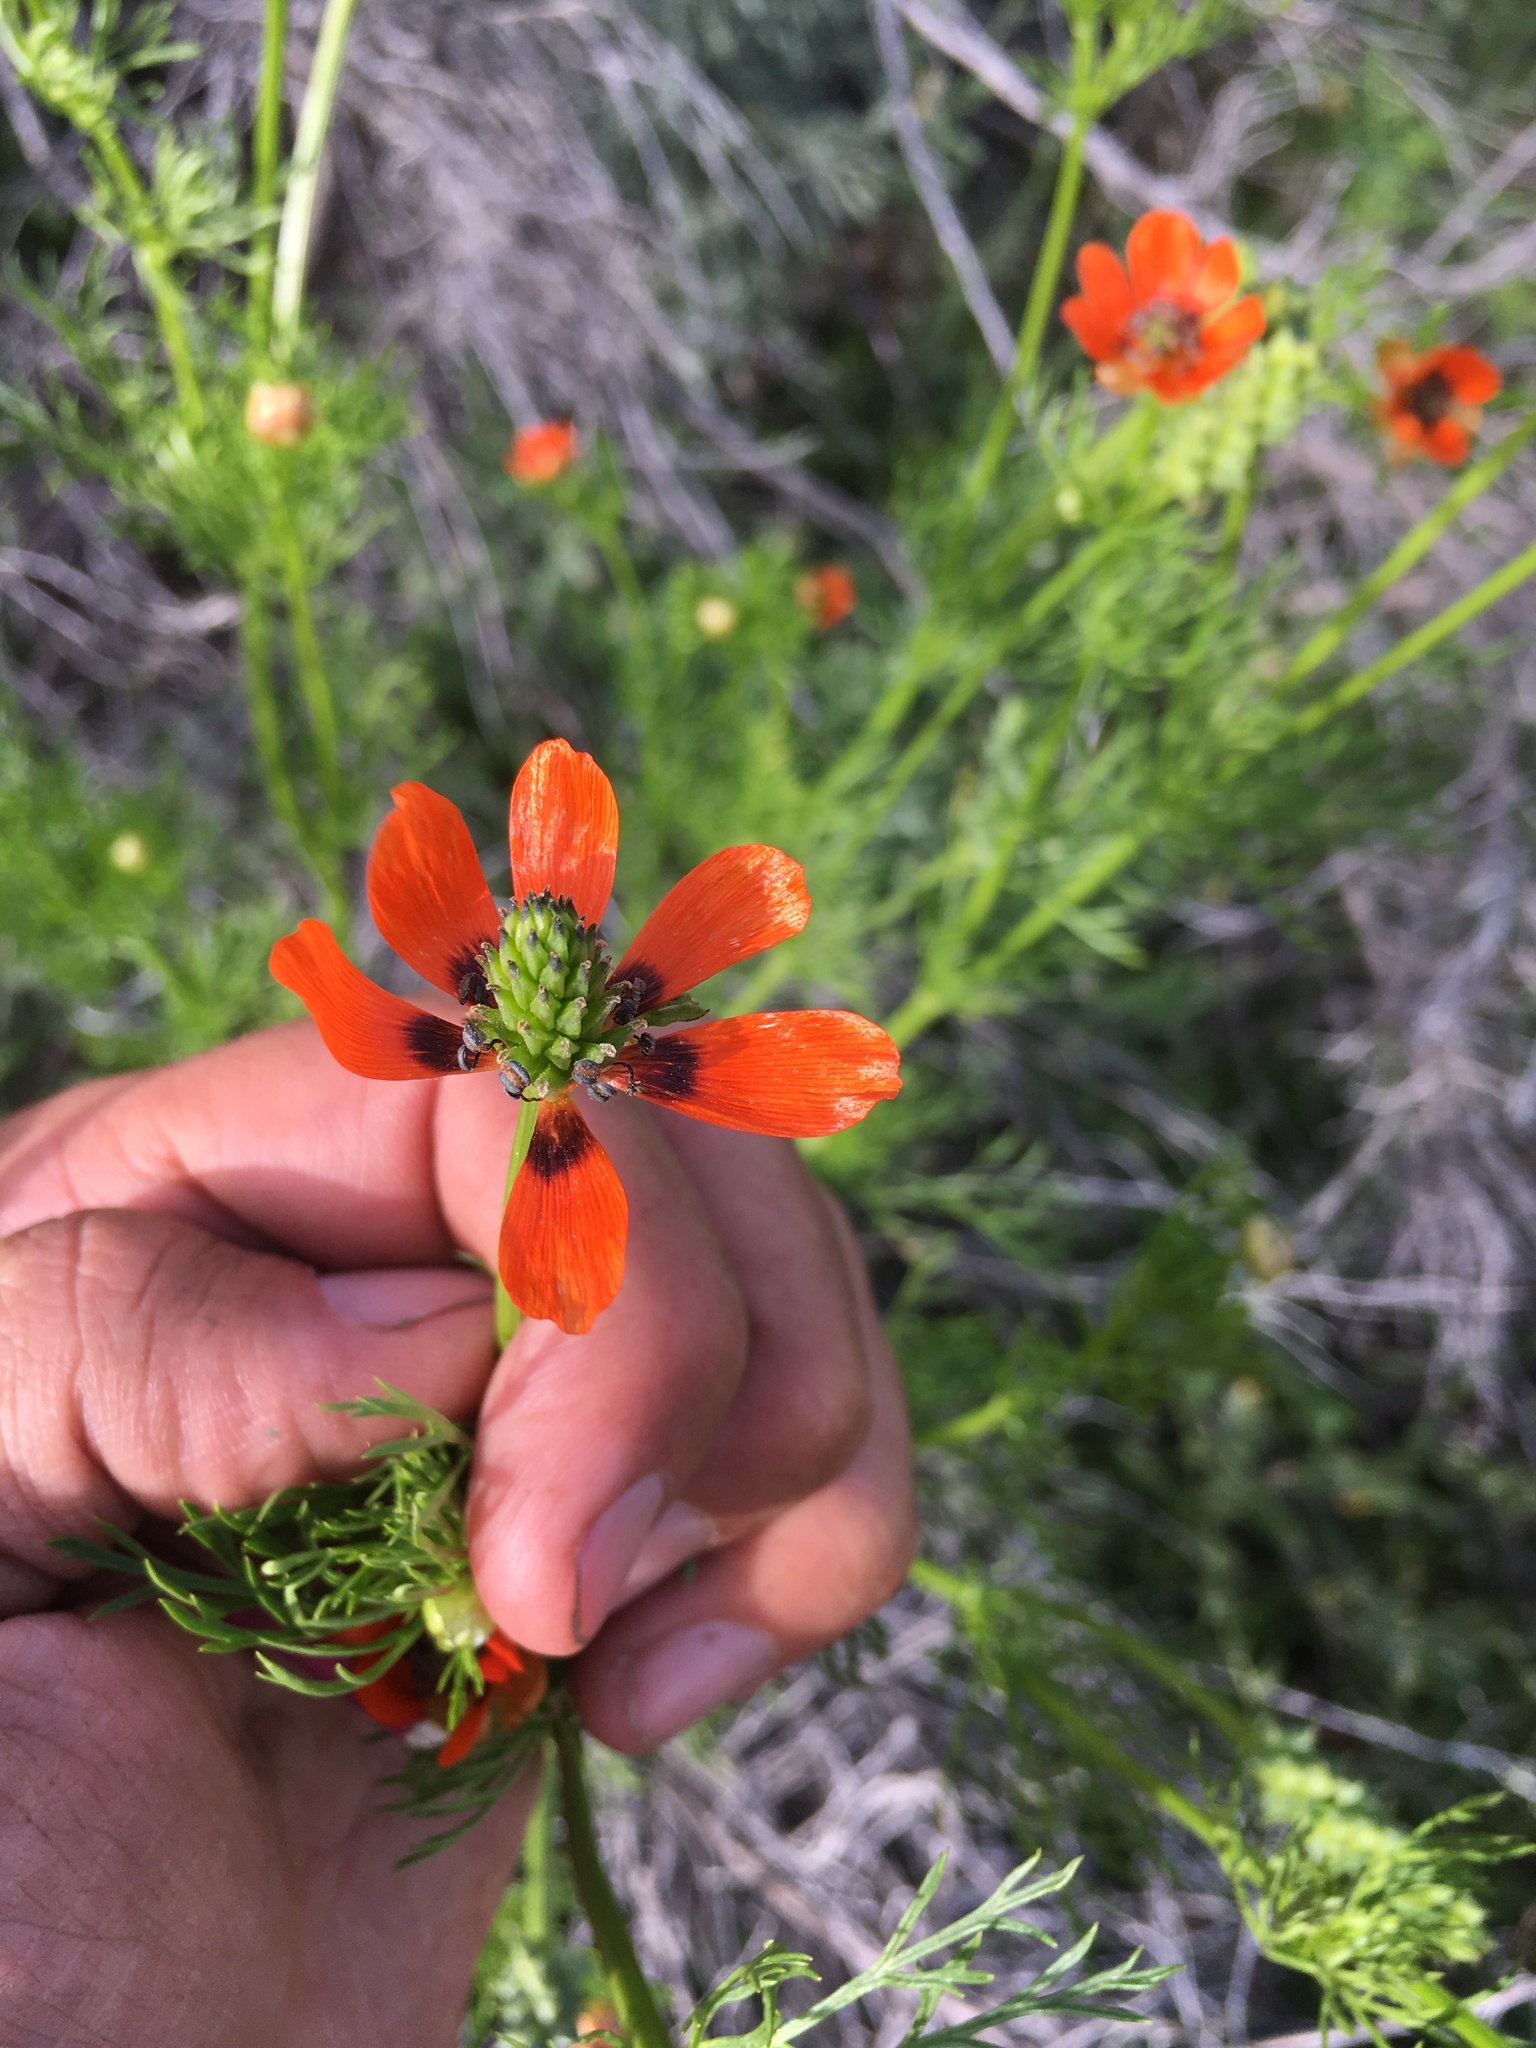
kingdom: Plantae
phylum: Tracheophyta
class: Magnoliopsida
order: Ranunculales
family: Ranunculaceae
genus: Adonis
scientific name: Adonis aestivalis
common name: Summer pheasant's-eye
